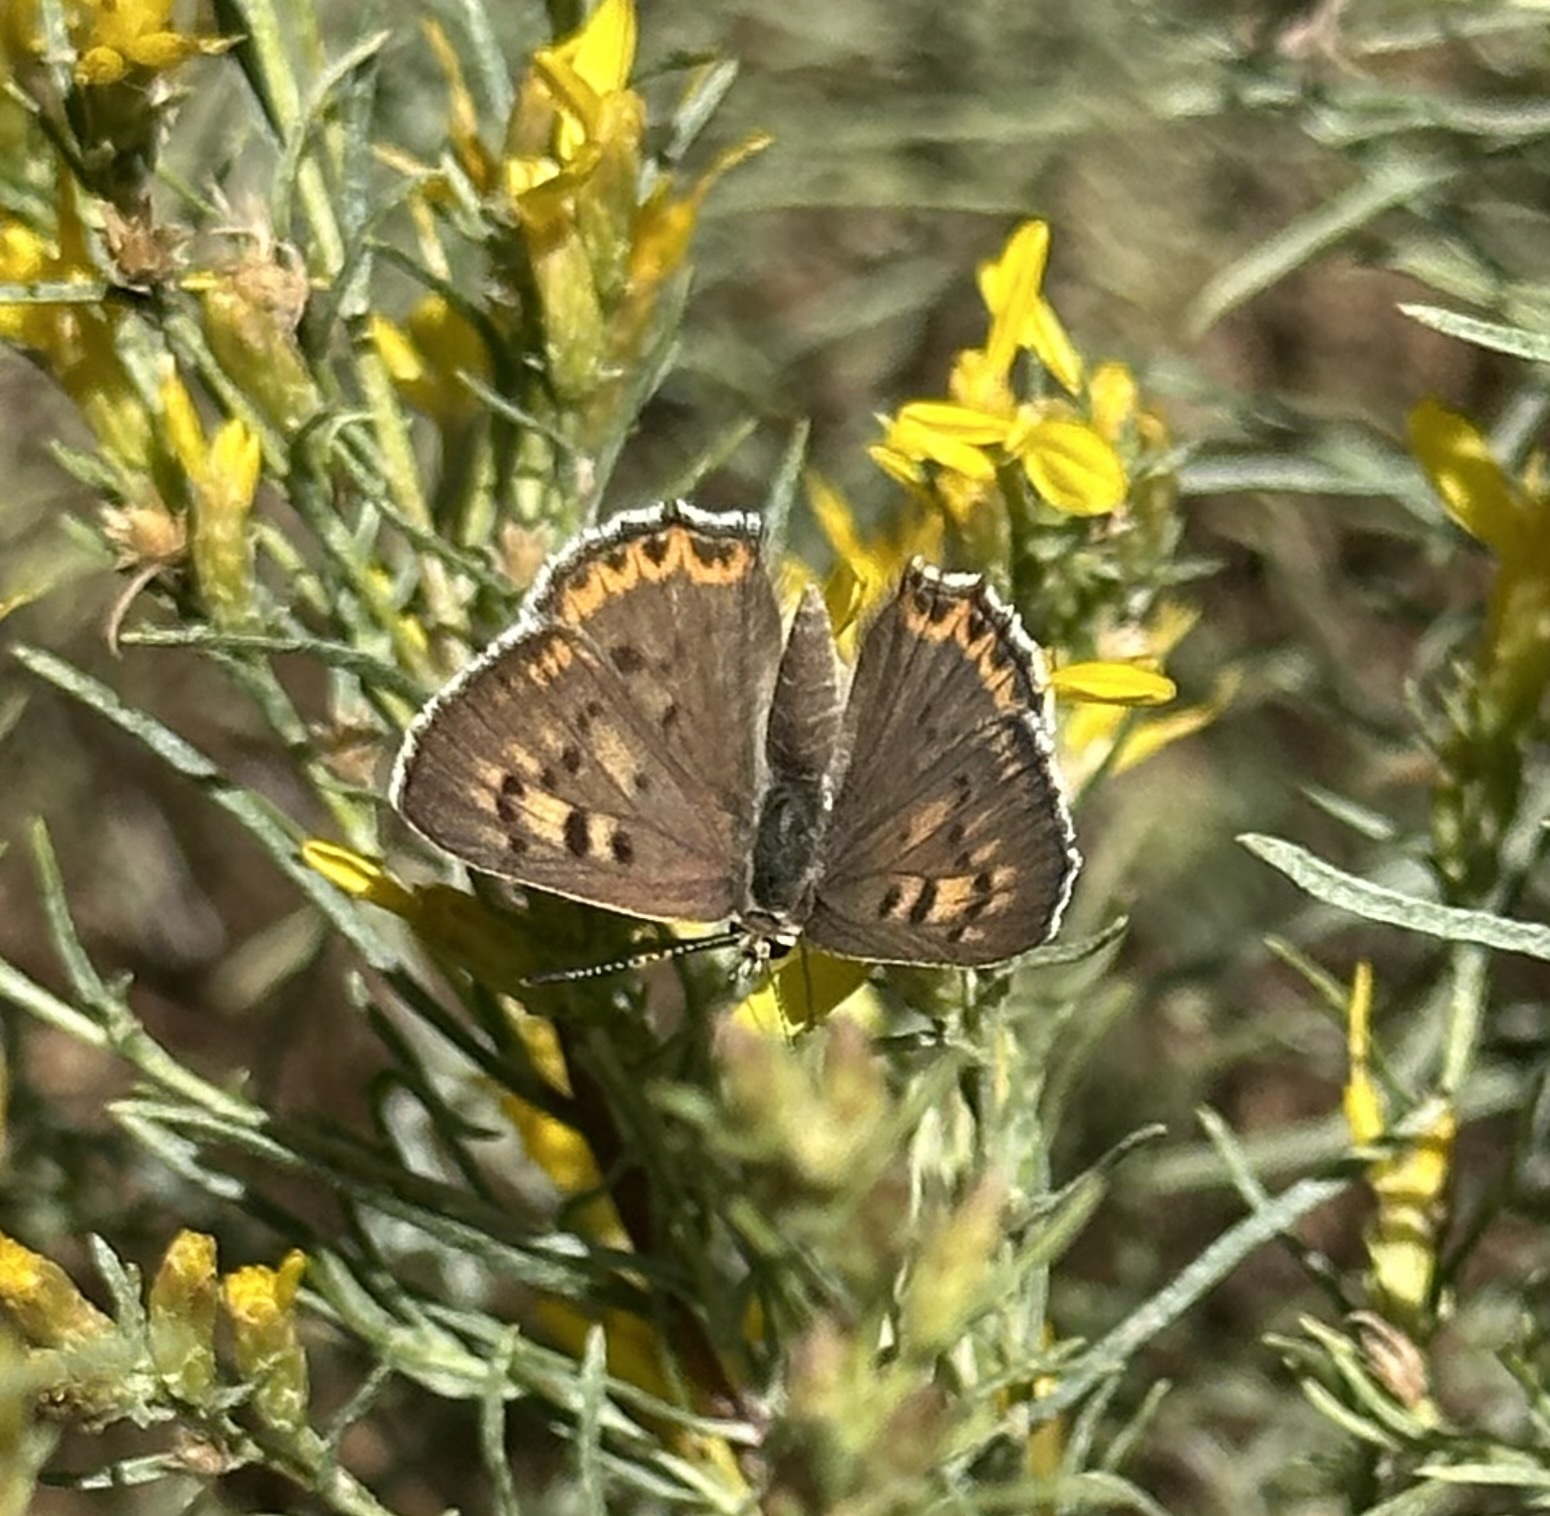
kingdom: Animalia
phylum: Arthropoda
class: Insecta
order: Lepidoptera
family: Lycaenidae
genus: Tharsalea
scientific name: Tharsalea editha
